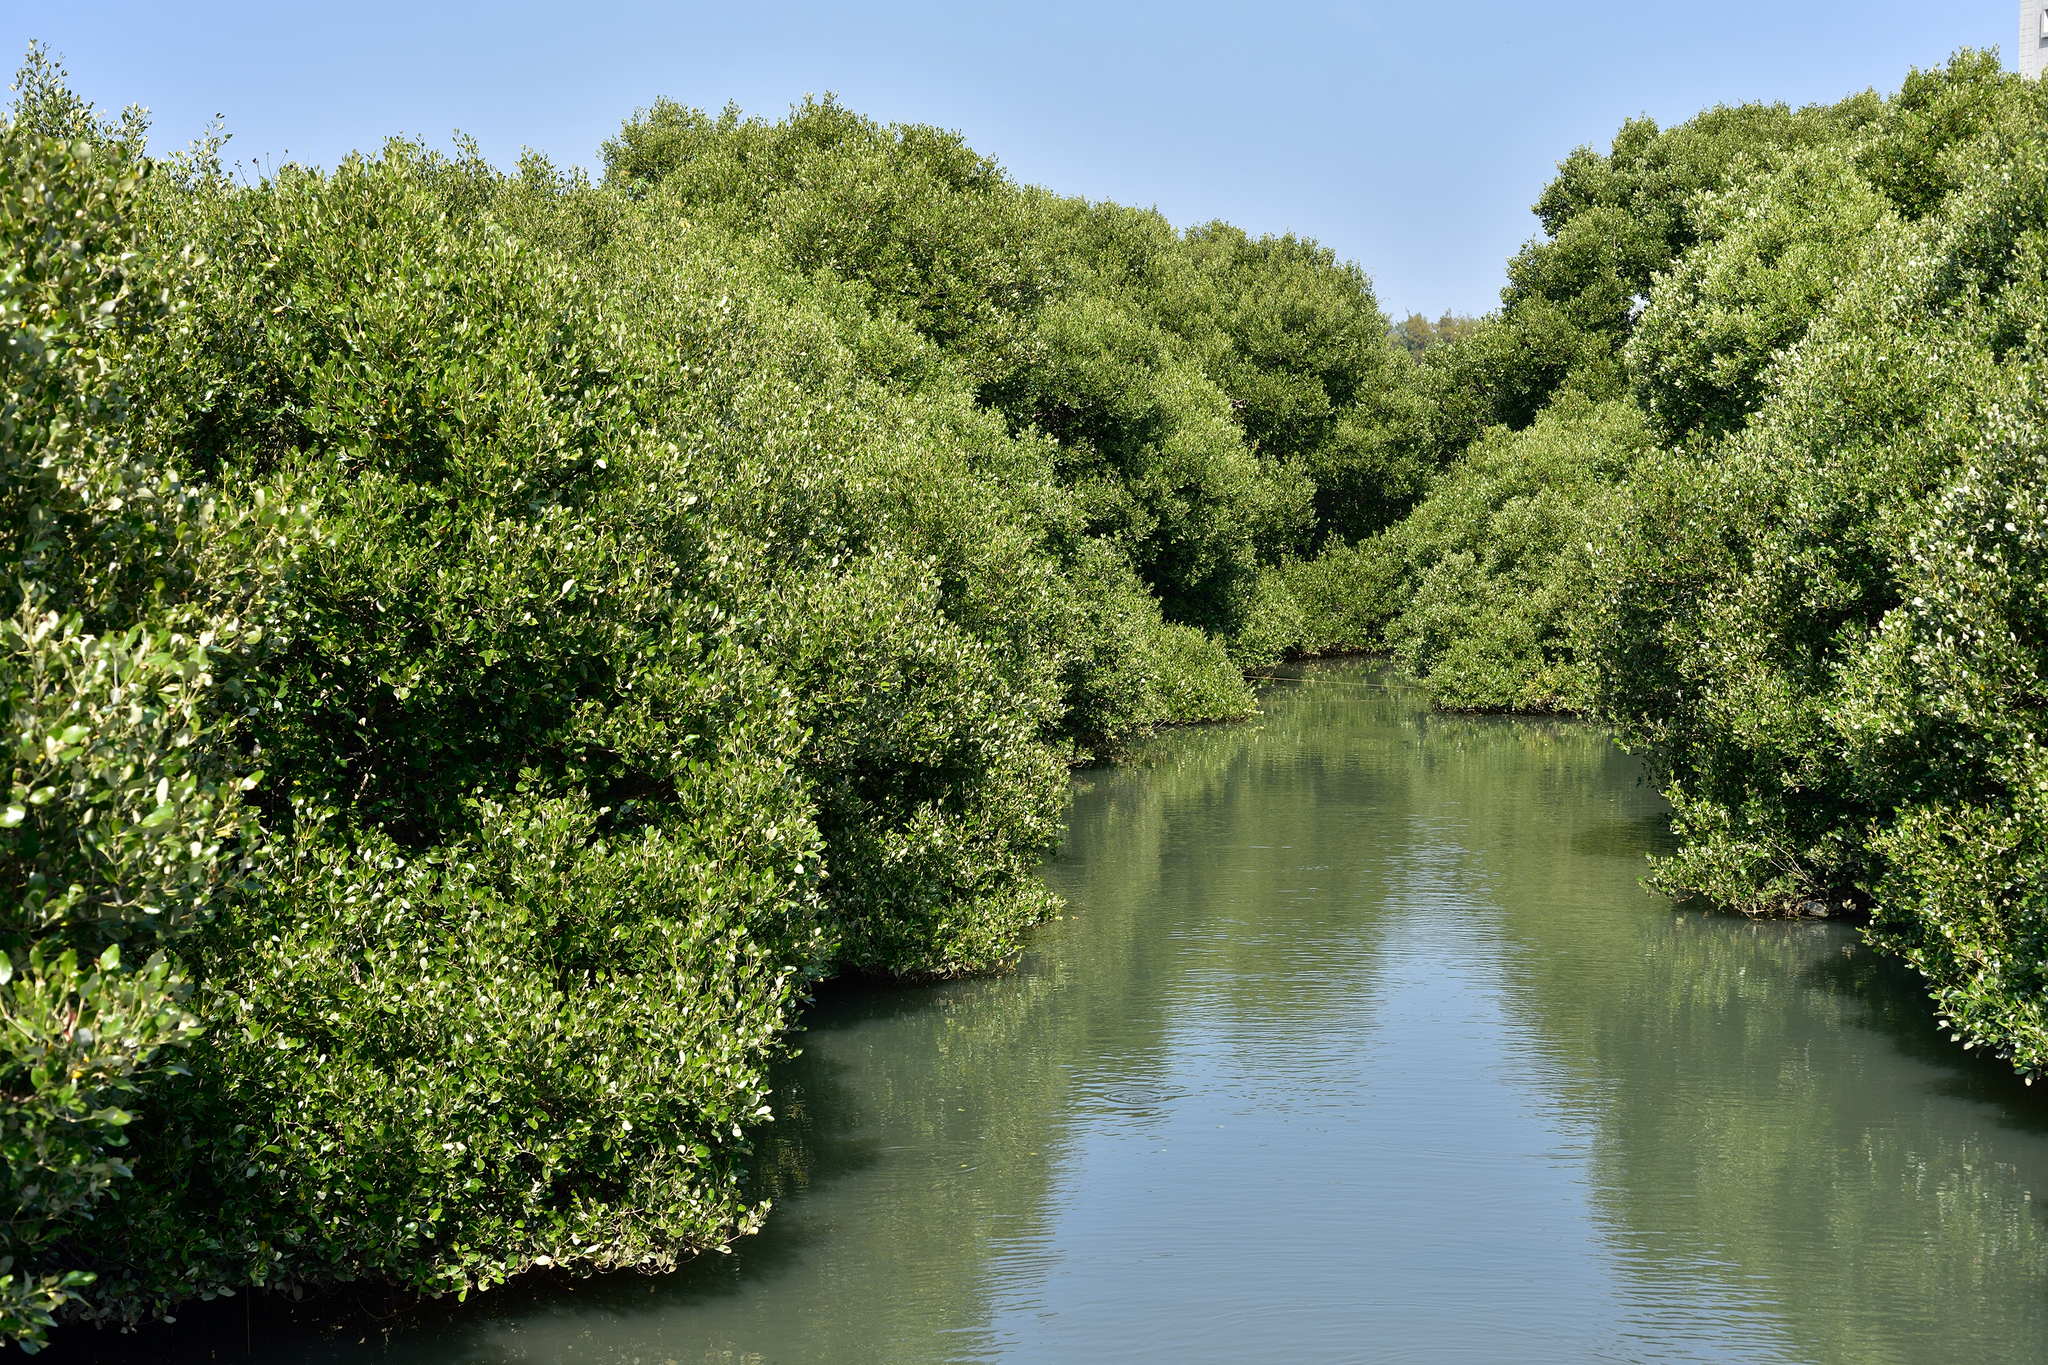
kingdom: Plantae
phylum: Tracheophyta
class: Magnoliopsida
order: Lamiales
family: Acanthaceae
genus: Avicennia
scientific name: Avicennia marina
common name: Gray mangrove
